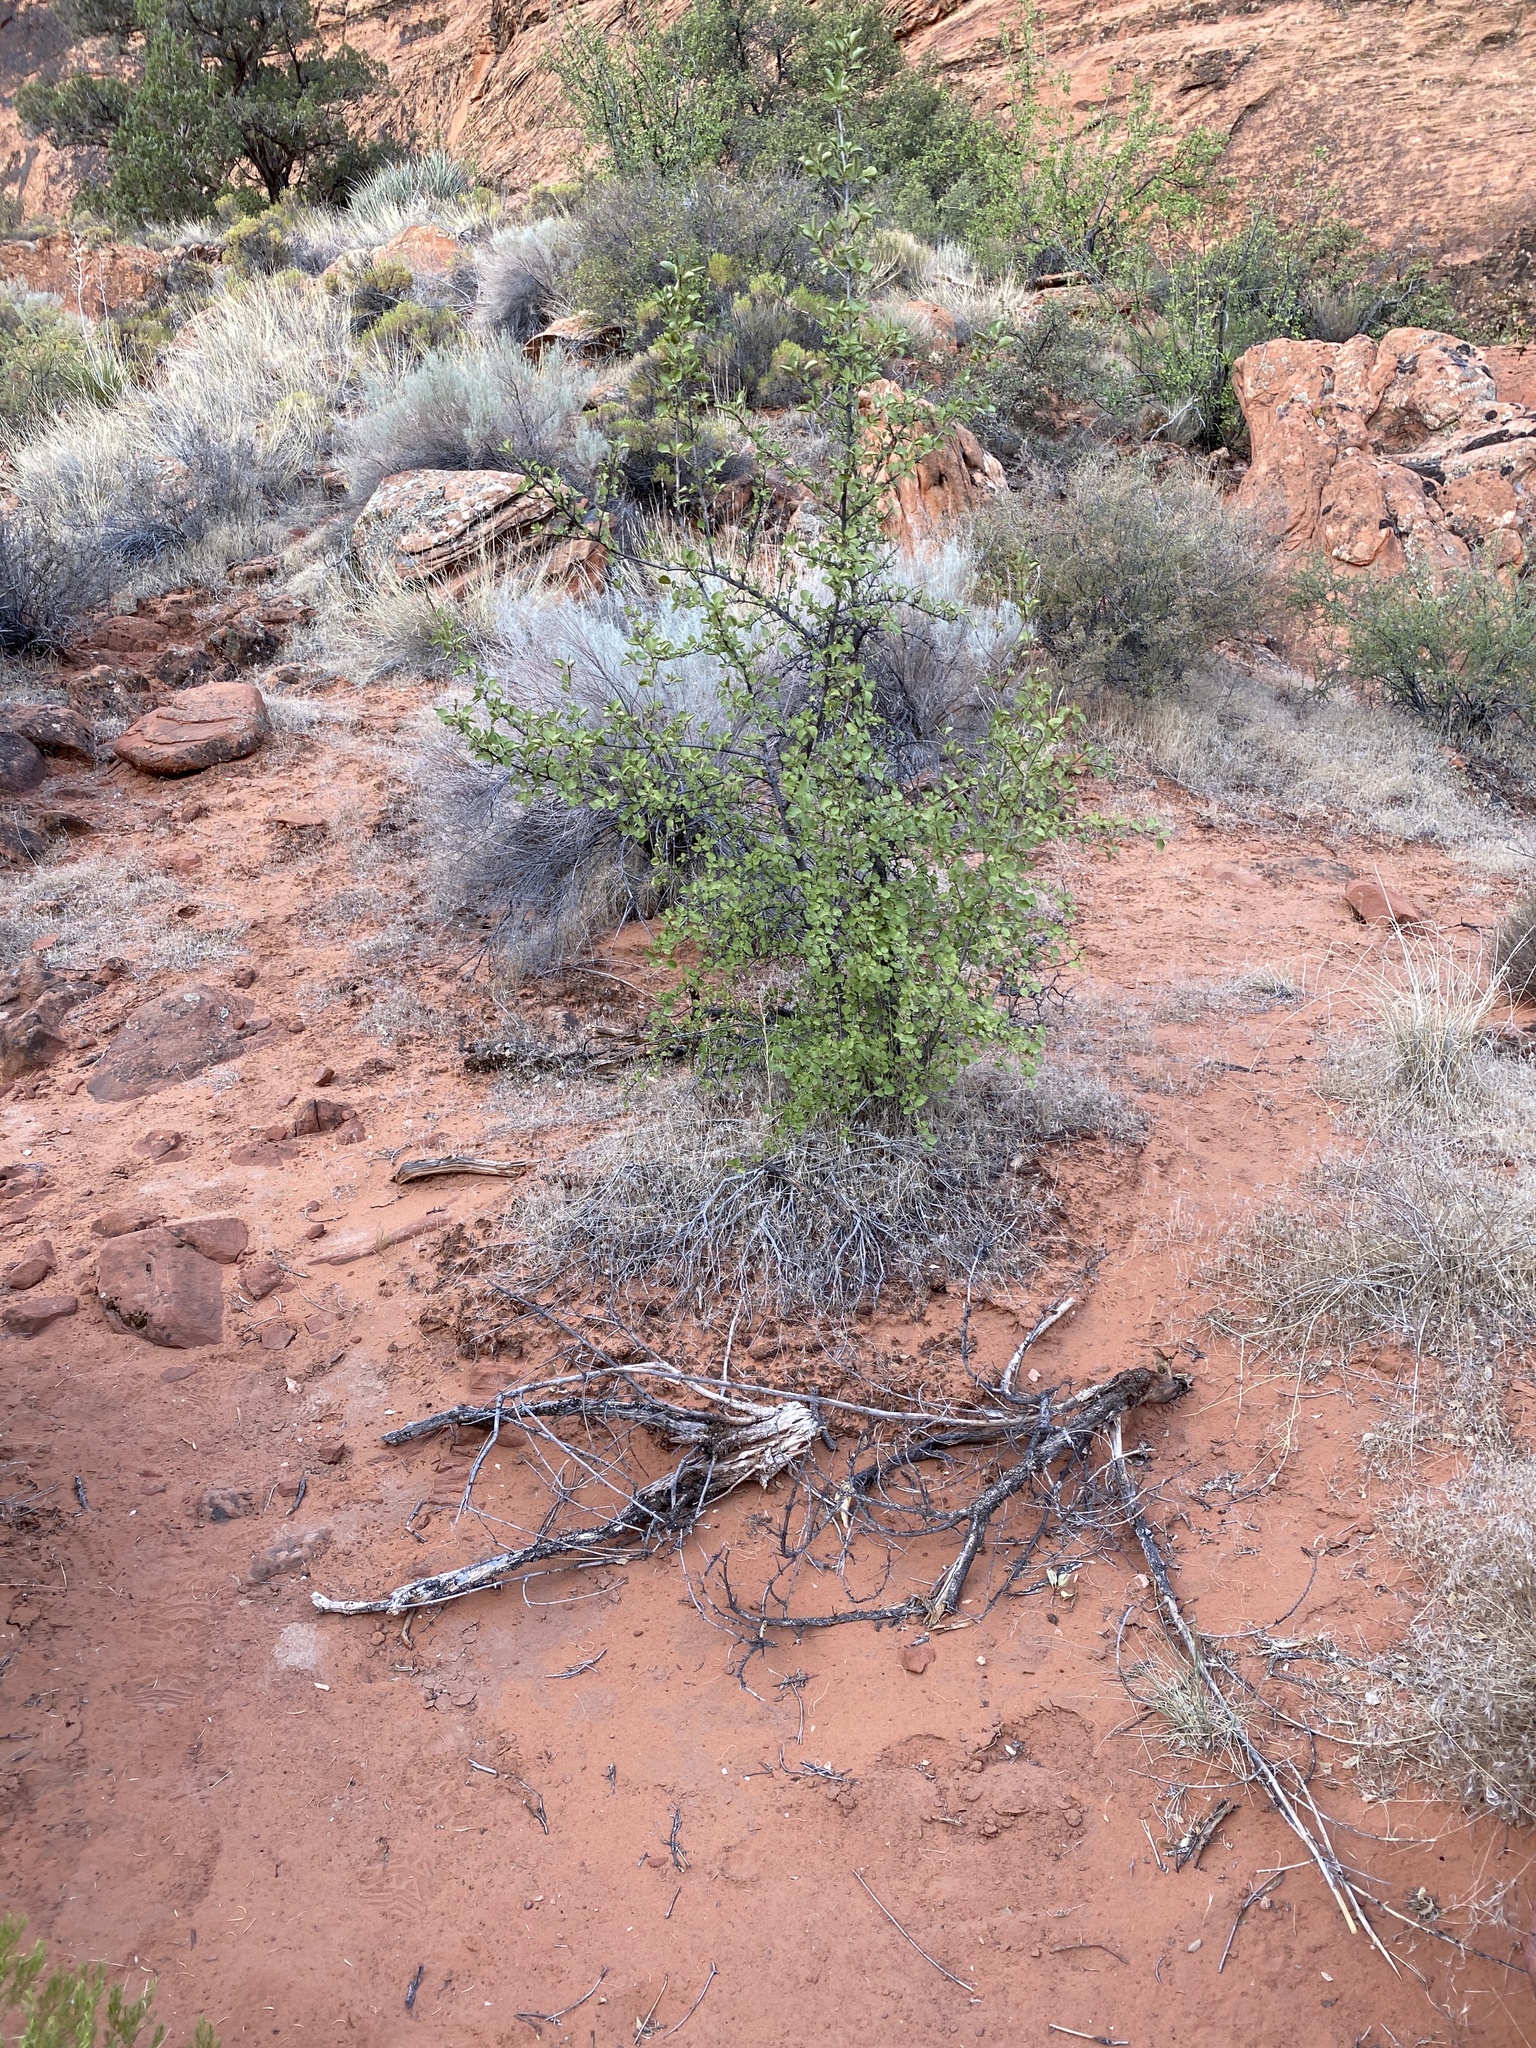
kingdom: Plantae
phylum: Tracheophyta
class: Magnoliopsida
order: Lamiales
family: Oleaceae
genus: Fraxinus
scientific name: Fraxinus anomala
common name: Utah ash
